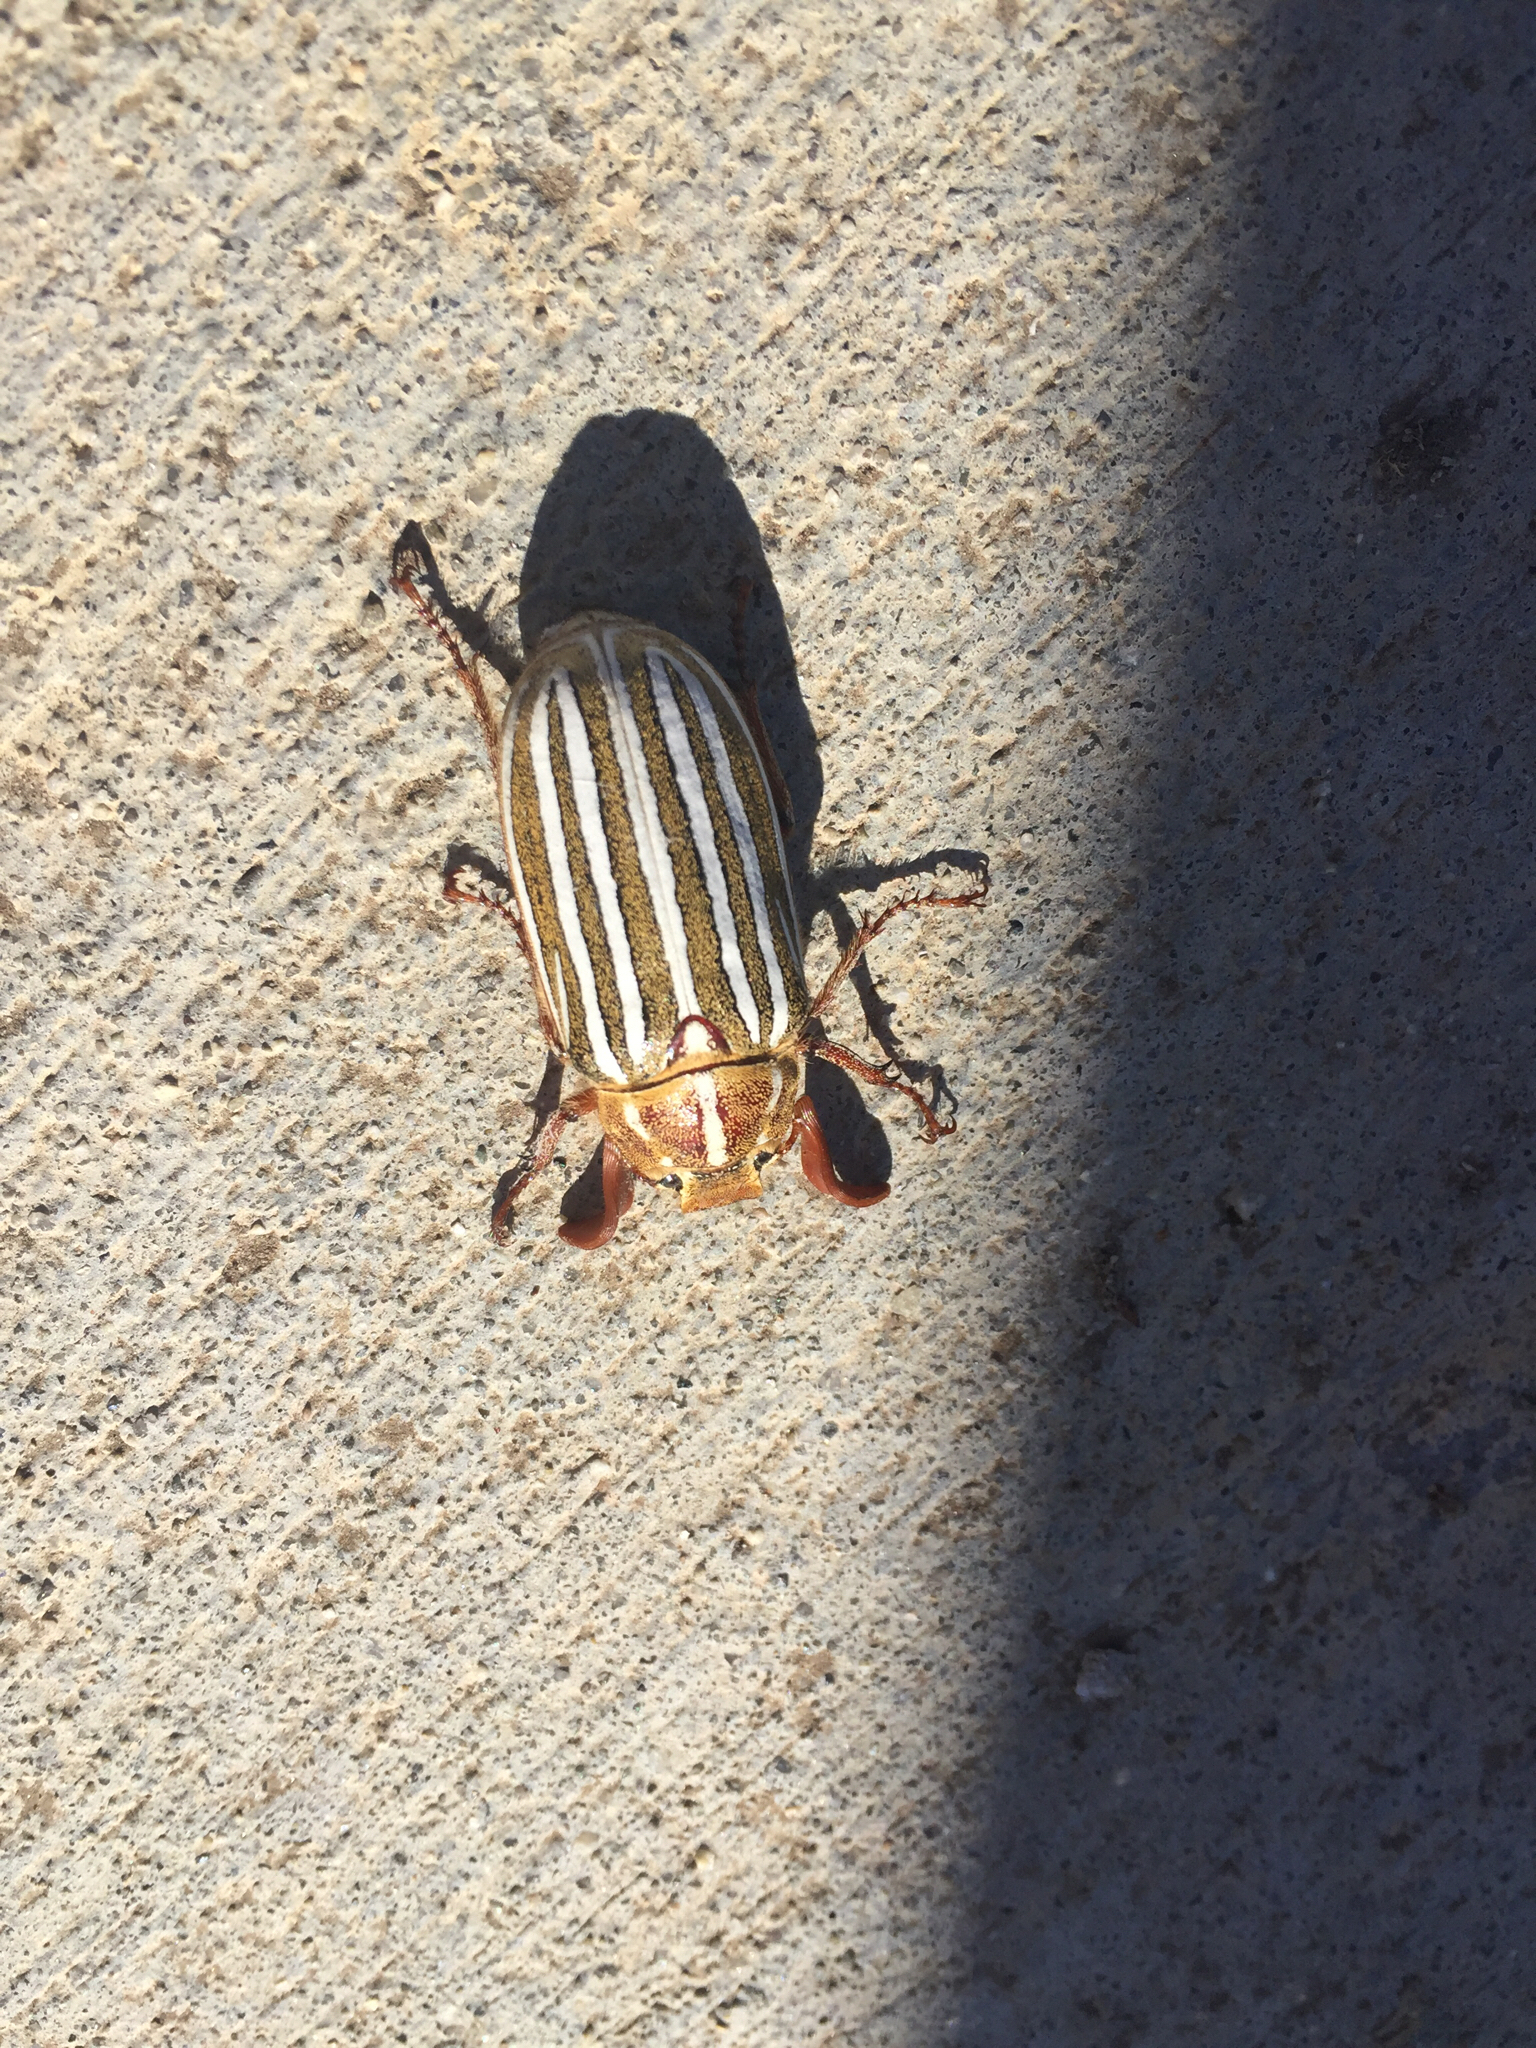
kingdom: Animalia
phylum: Arthropoda
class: Insecta
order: Coleoptera
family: Scarabaeidae
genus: Polyphylla
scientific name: Polyphylla decemlineata
